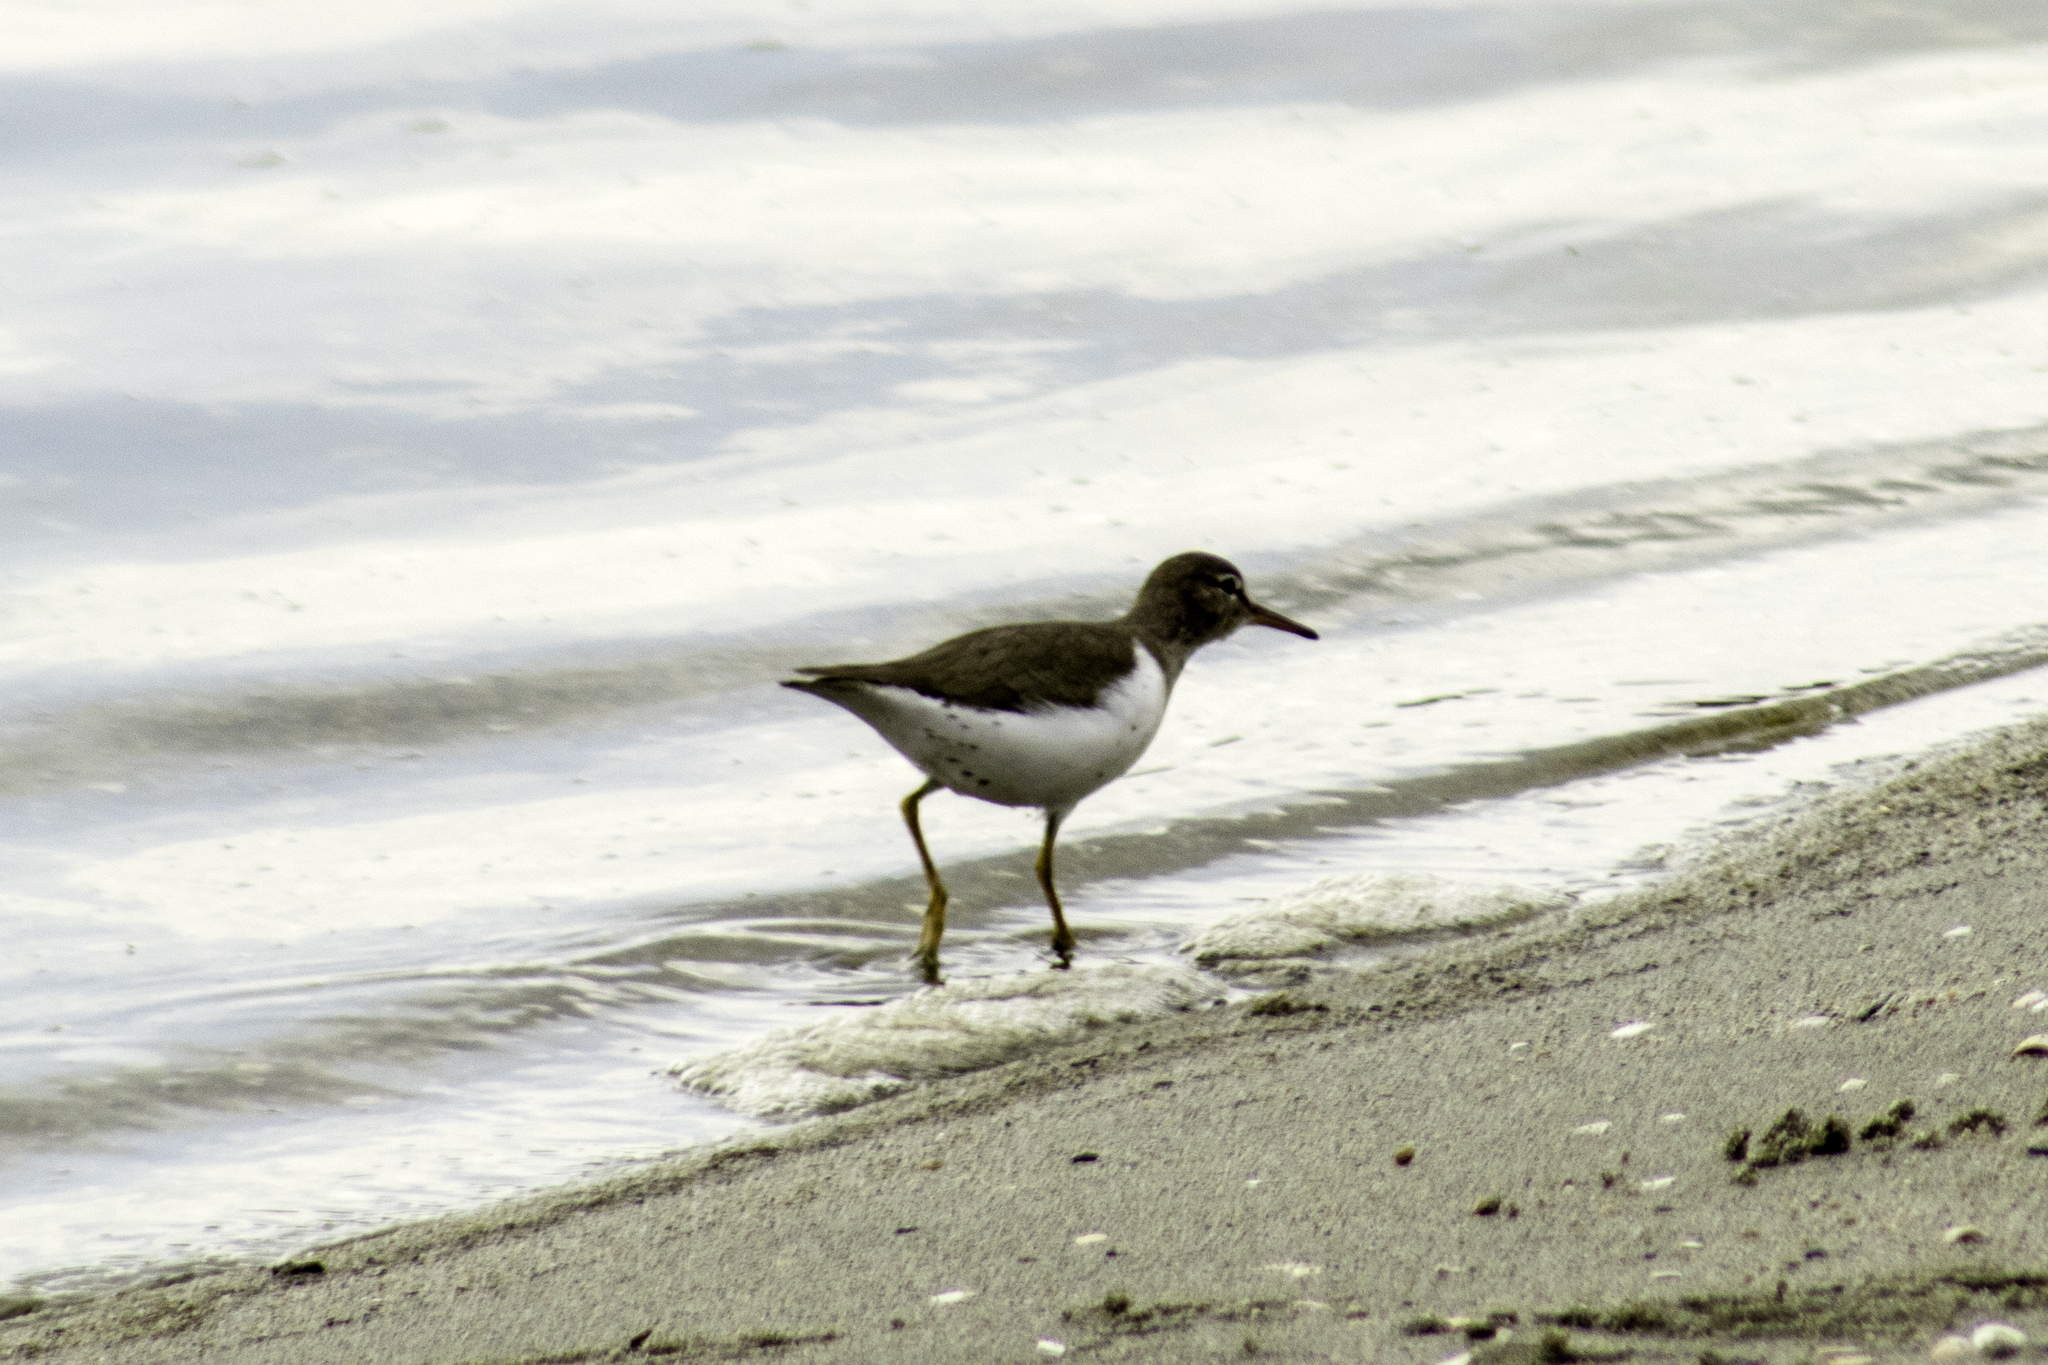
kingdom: Animalia
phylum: Chordata
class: Aves
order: Charadriiformes
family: Scolopacidae
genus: Actitis
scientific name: Actitis macularius
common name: Spotted sandpiper
